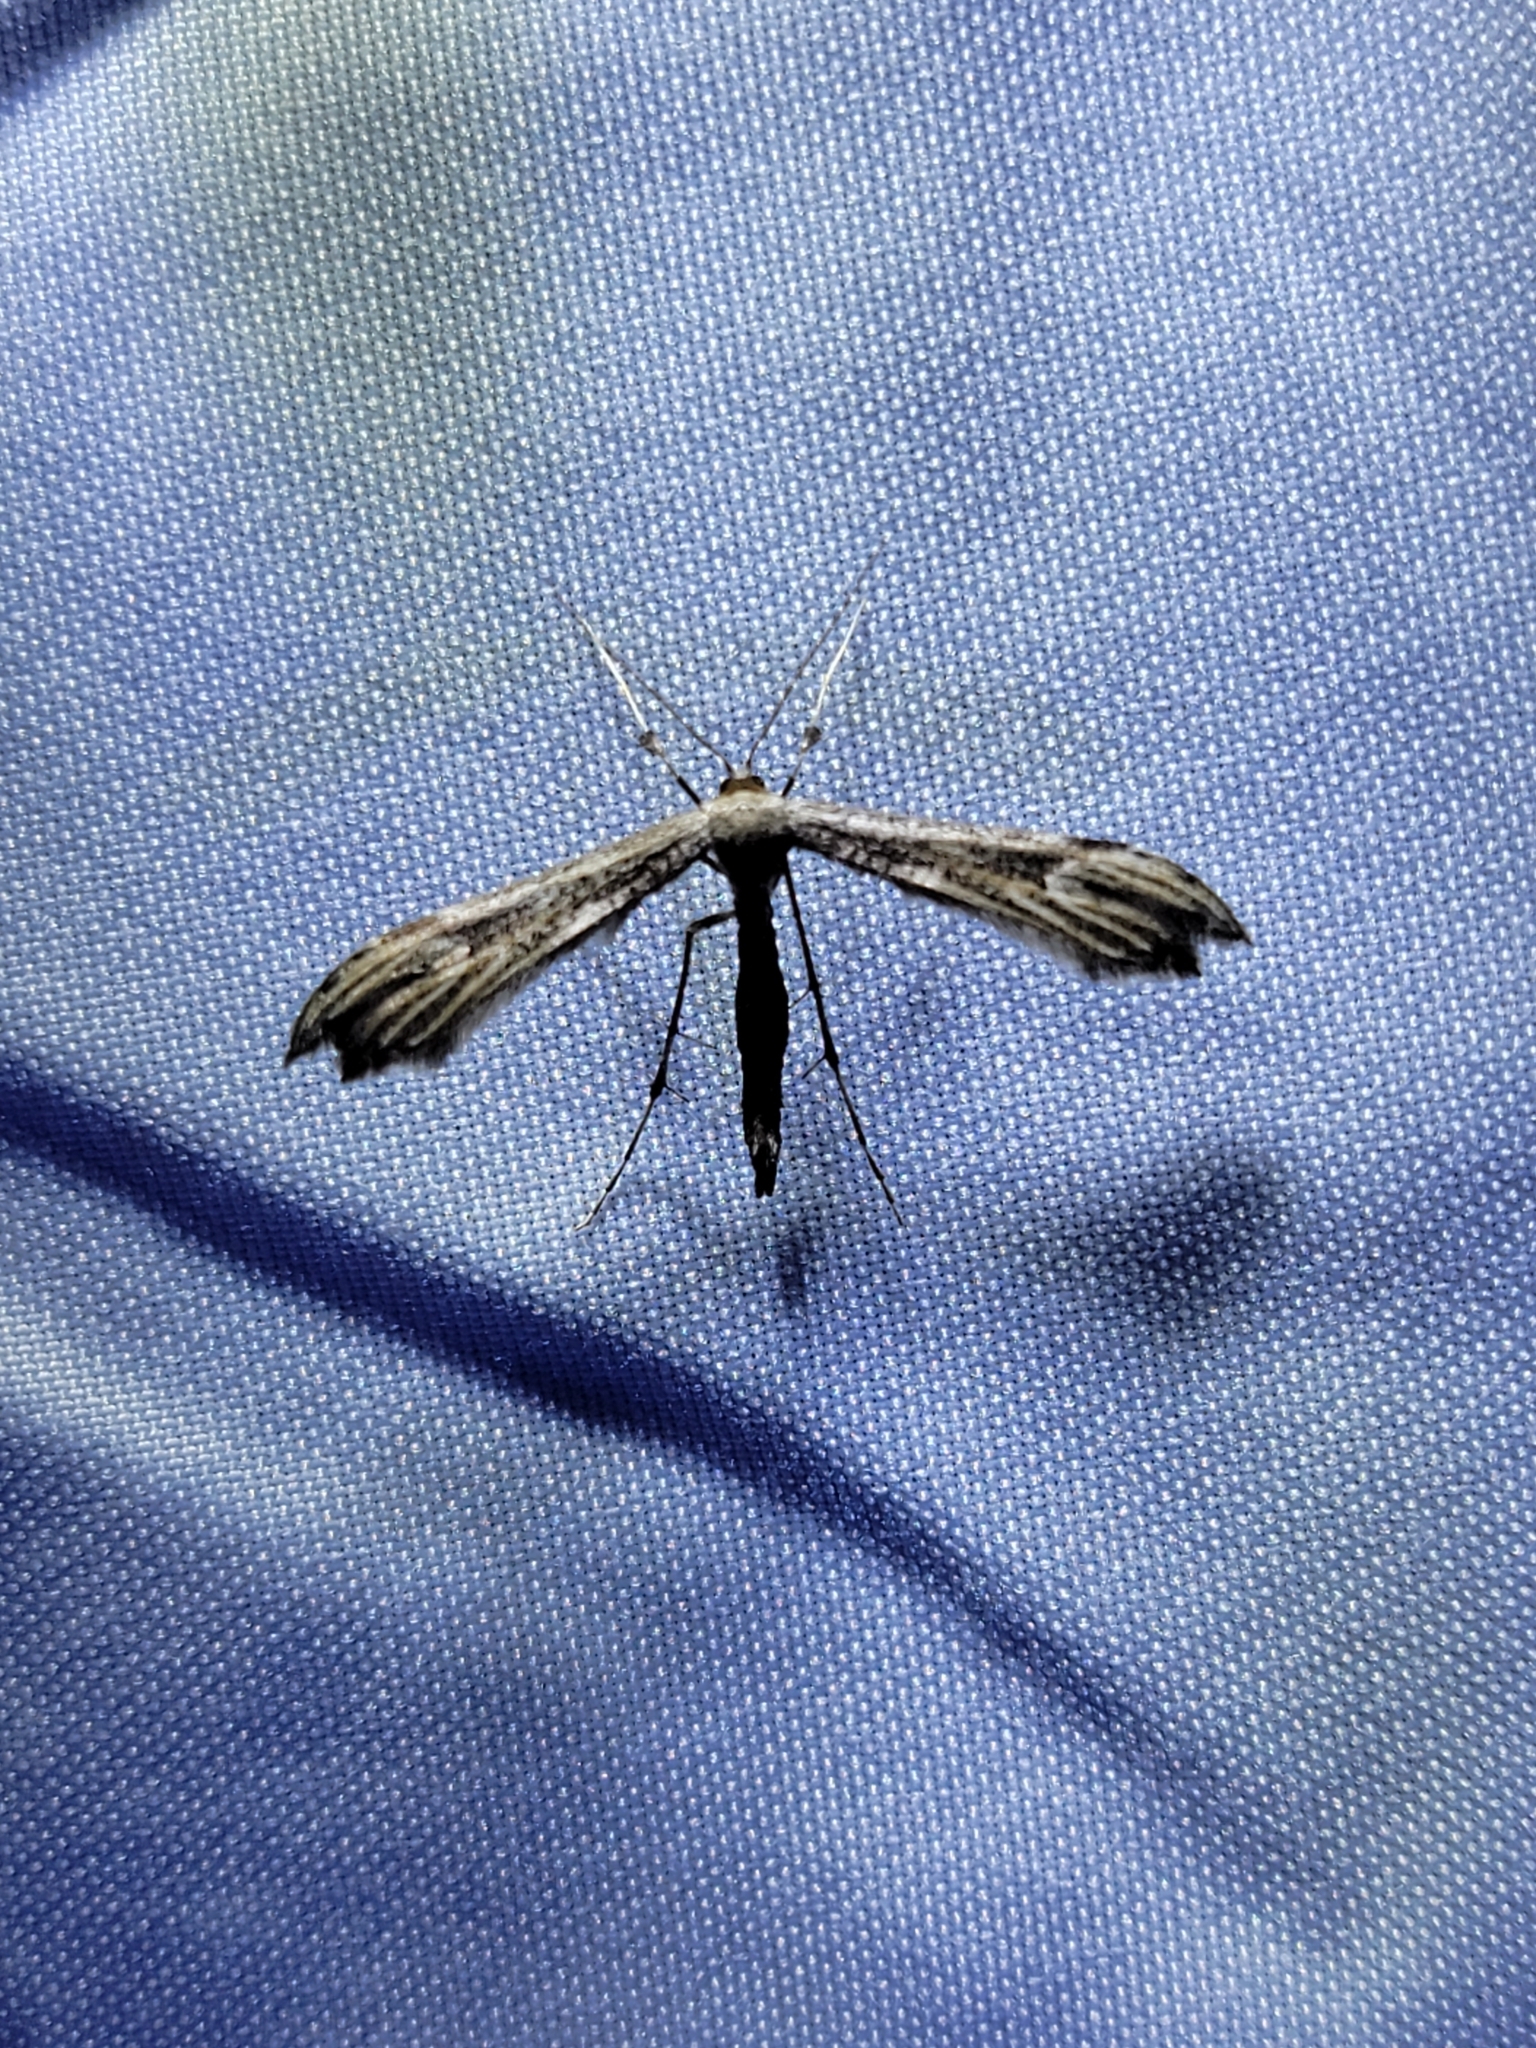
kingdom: Animalia
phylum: Arthropoda
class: Insecta
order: Lepidoptera
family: Pterophoridae
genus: Oidaematophorus
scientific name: Oidaematophorus eupatorii
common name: Eupatorium plume moth
